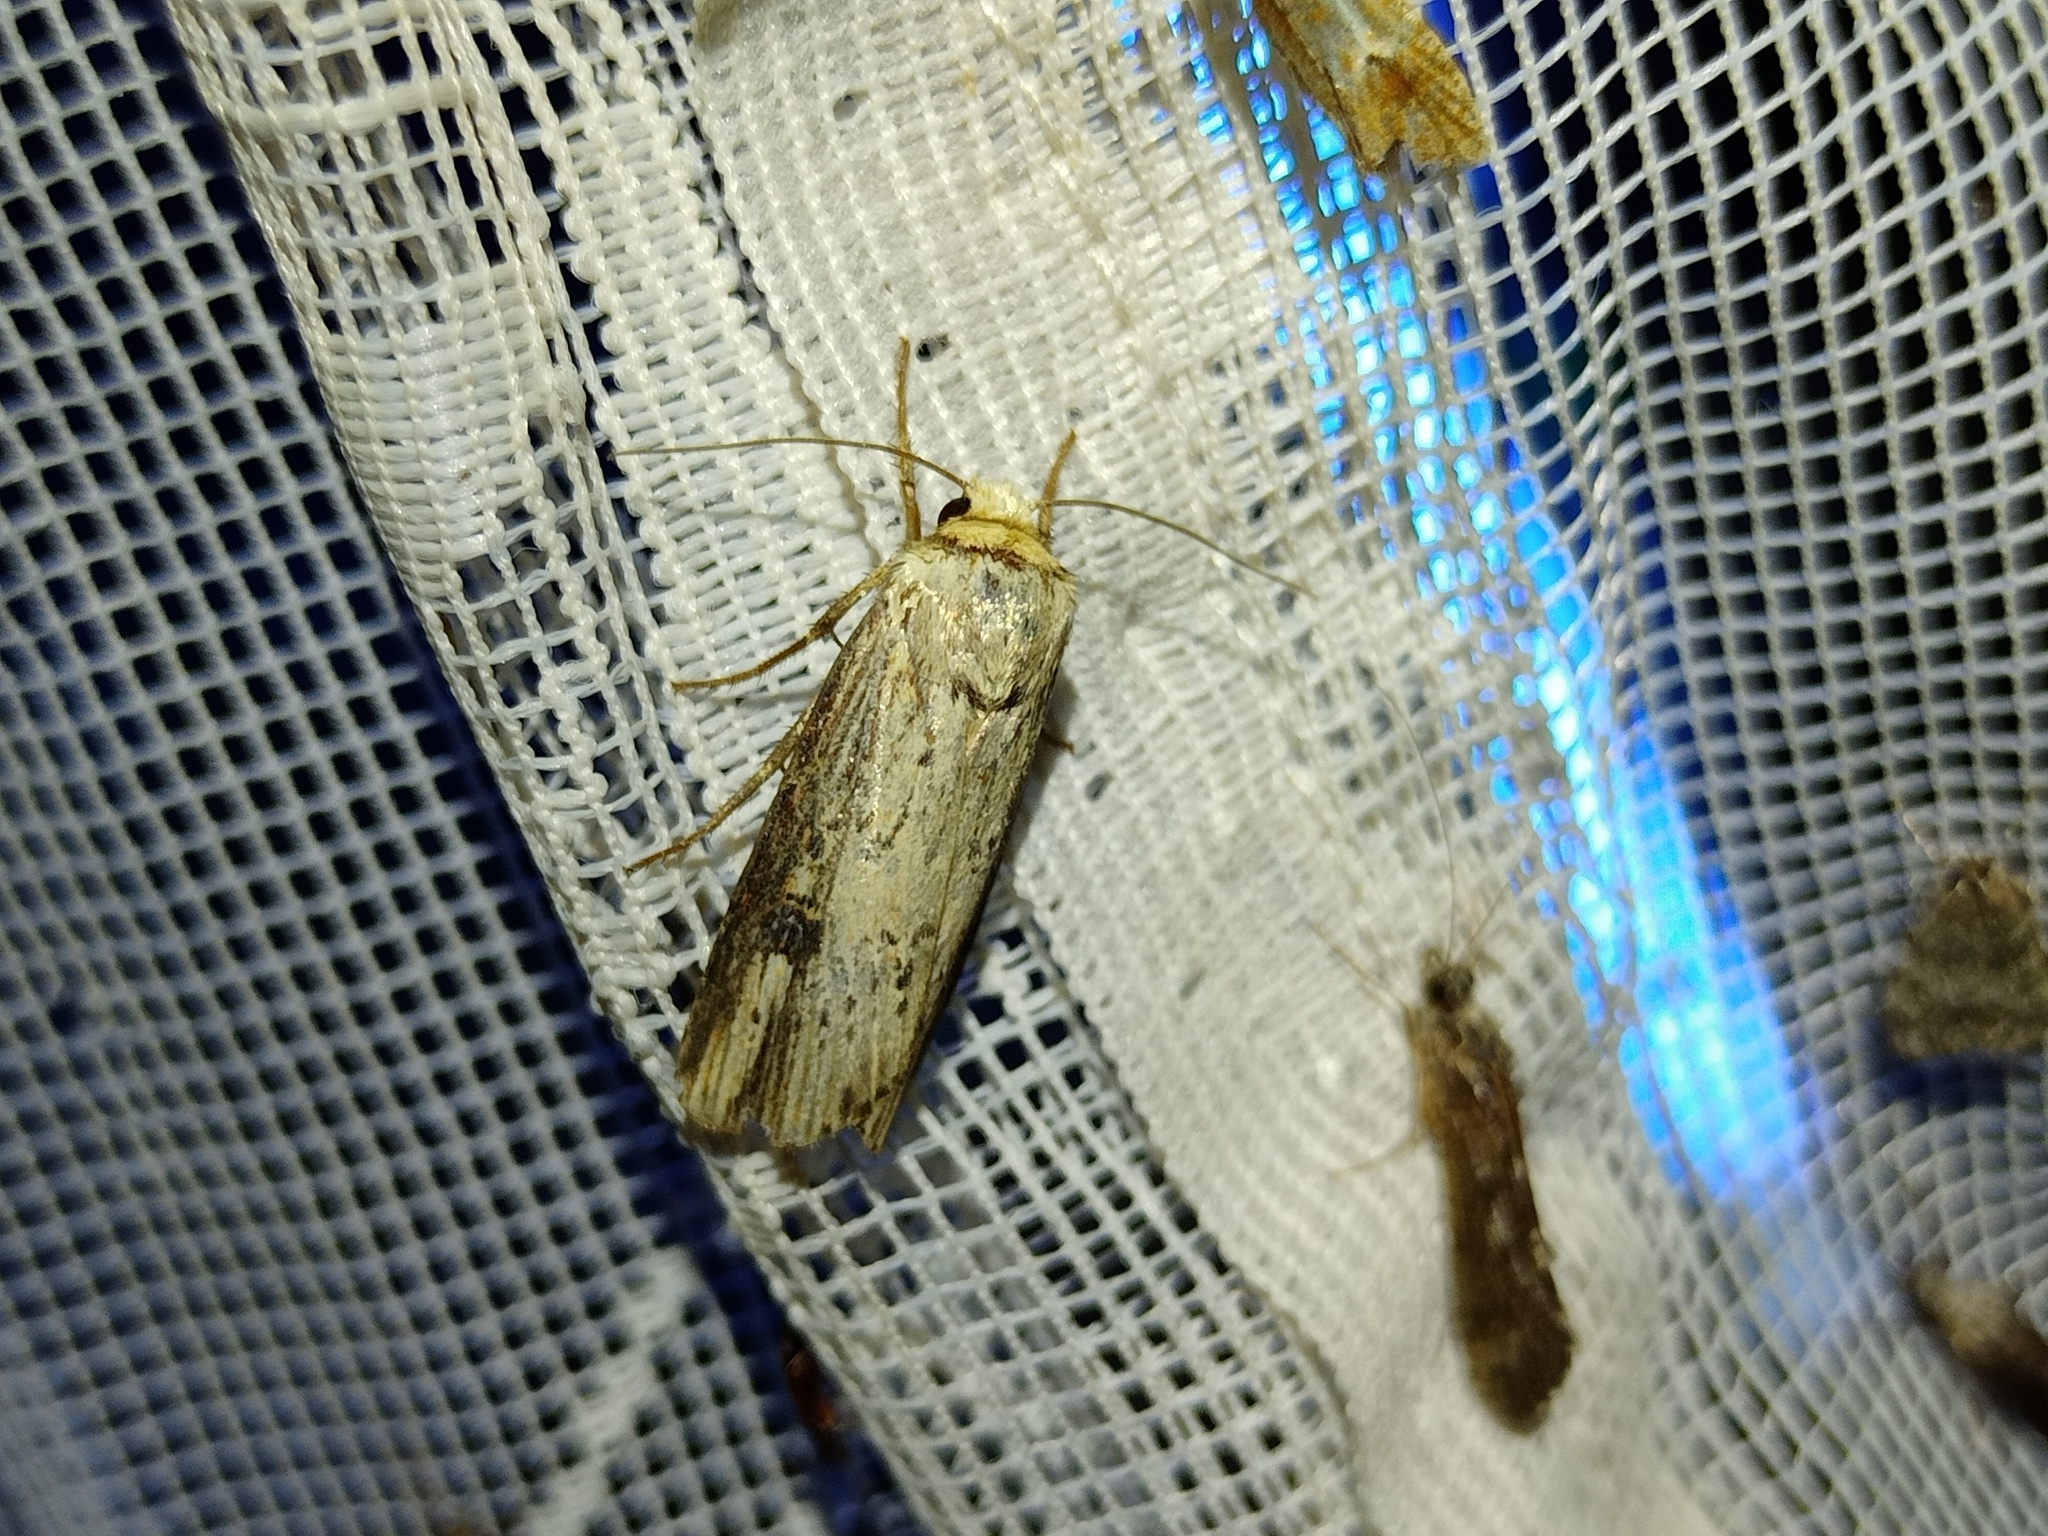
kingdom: Animalia
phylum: Arthropoda
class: Insecta
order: Lepidoptera
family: Noctuidae
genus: Axylia
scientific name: Axylia putris
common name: Flame
